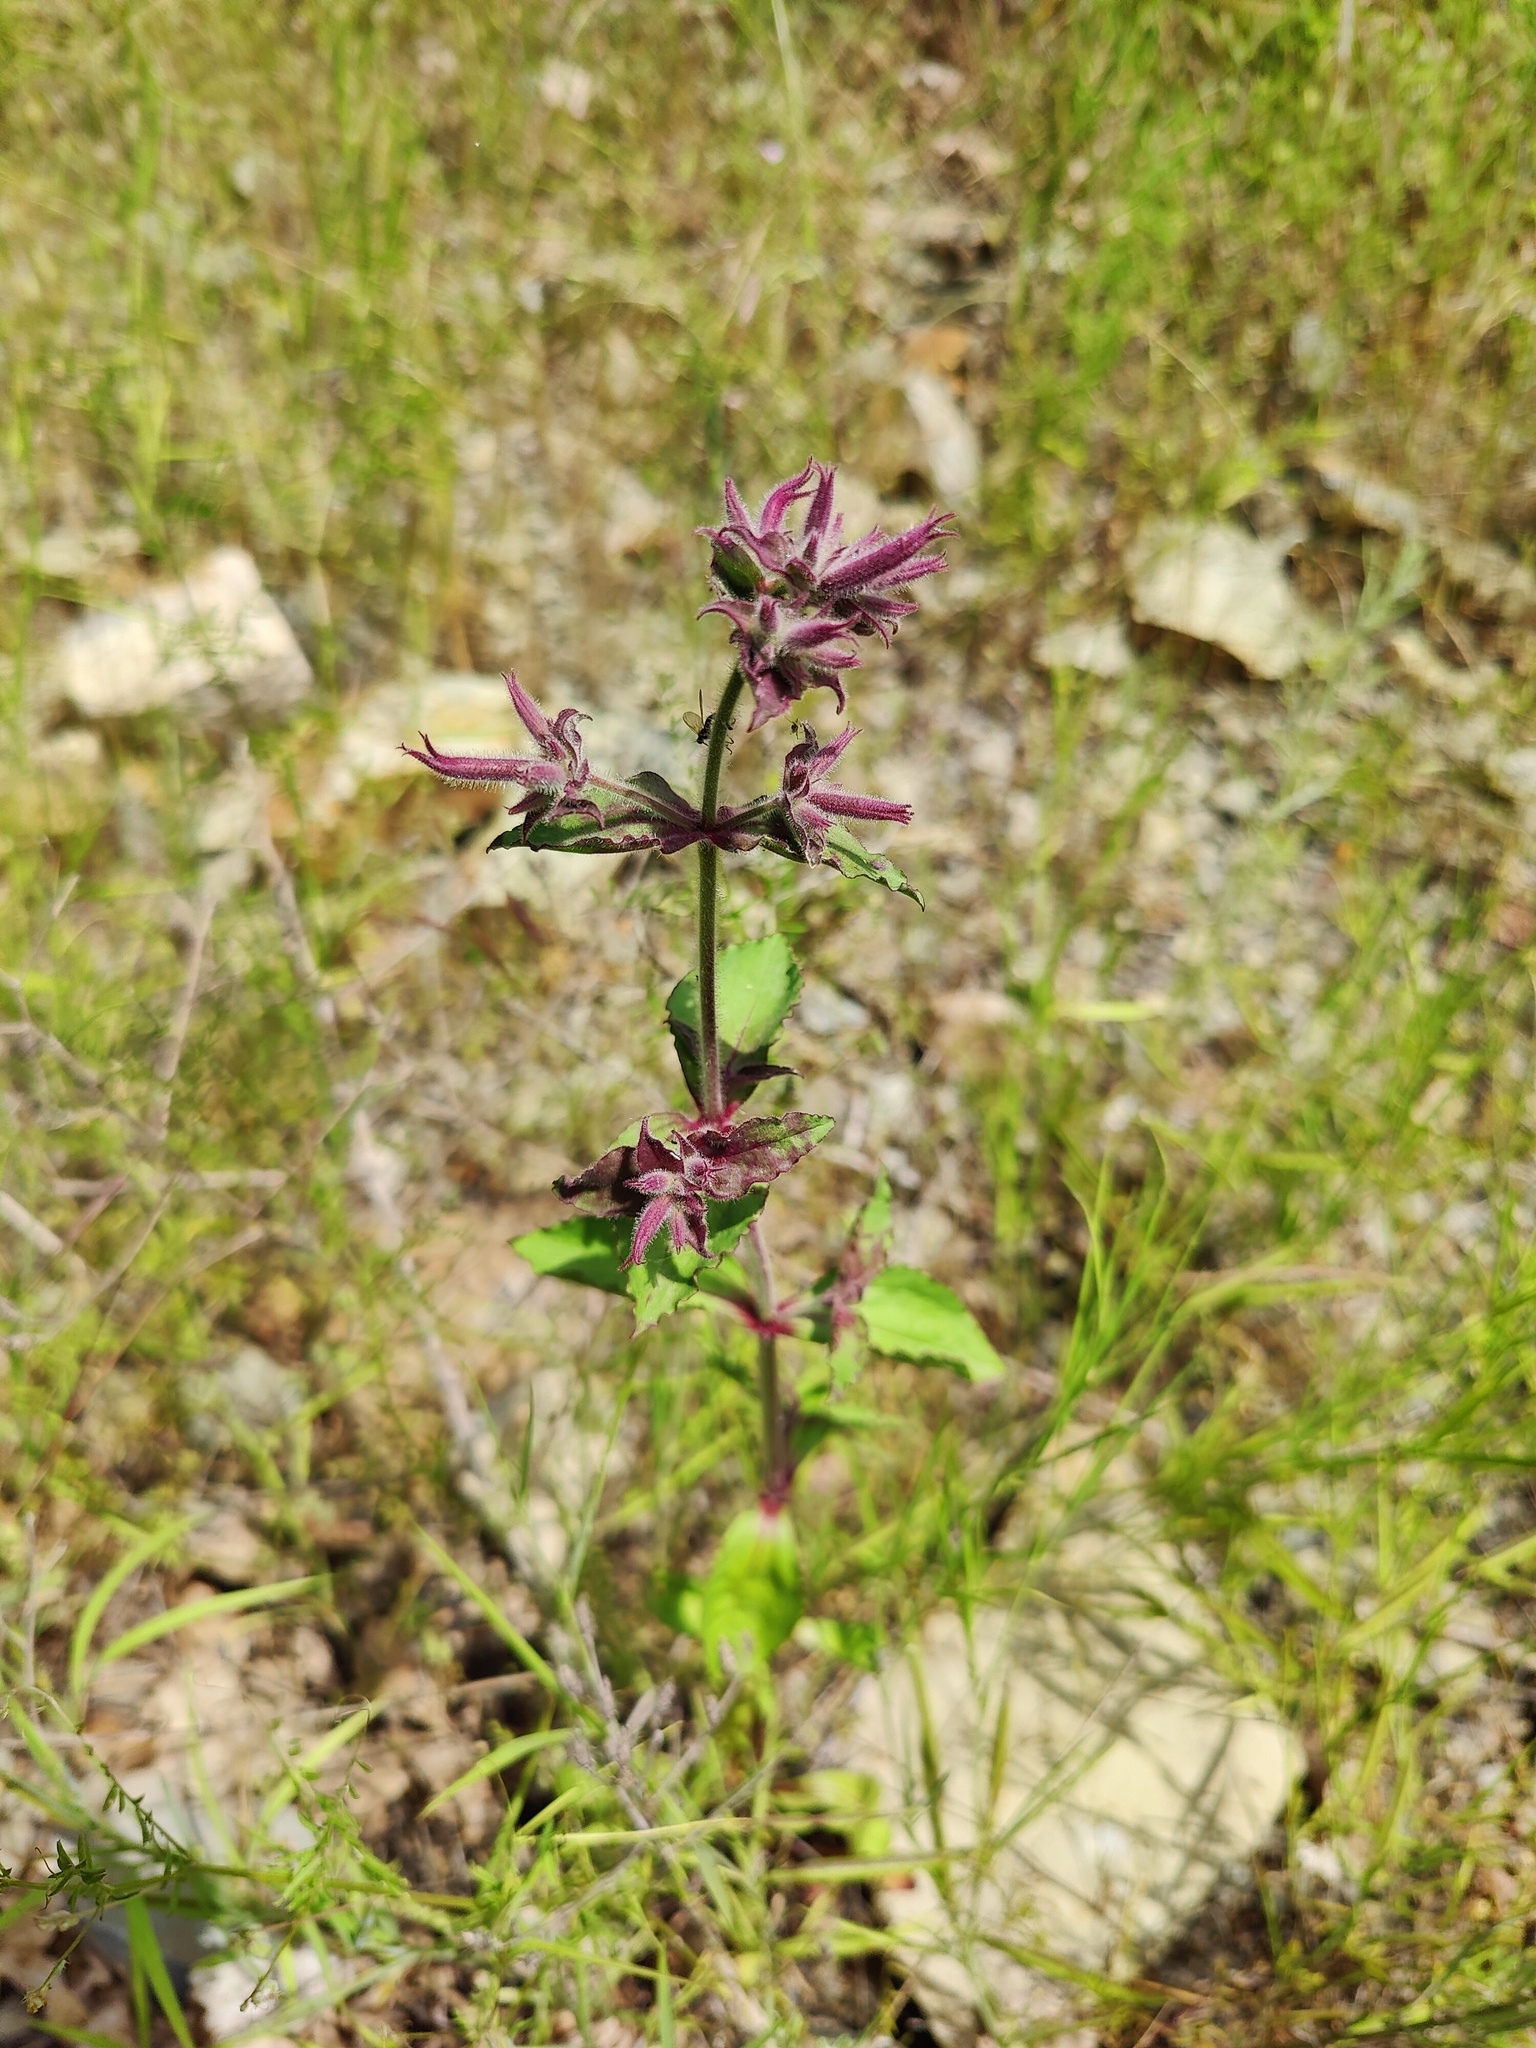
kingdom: Plantae
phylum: Tracheophyta
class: Magnoliopsida
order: Caryophyllales
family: Caryophyllaceae
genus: Saponaria
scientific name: Saponaria glutinosa
